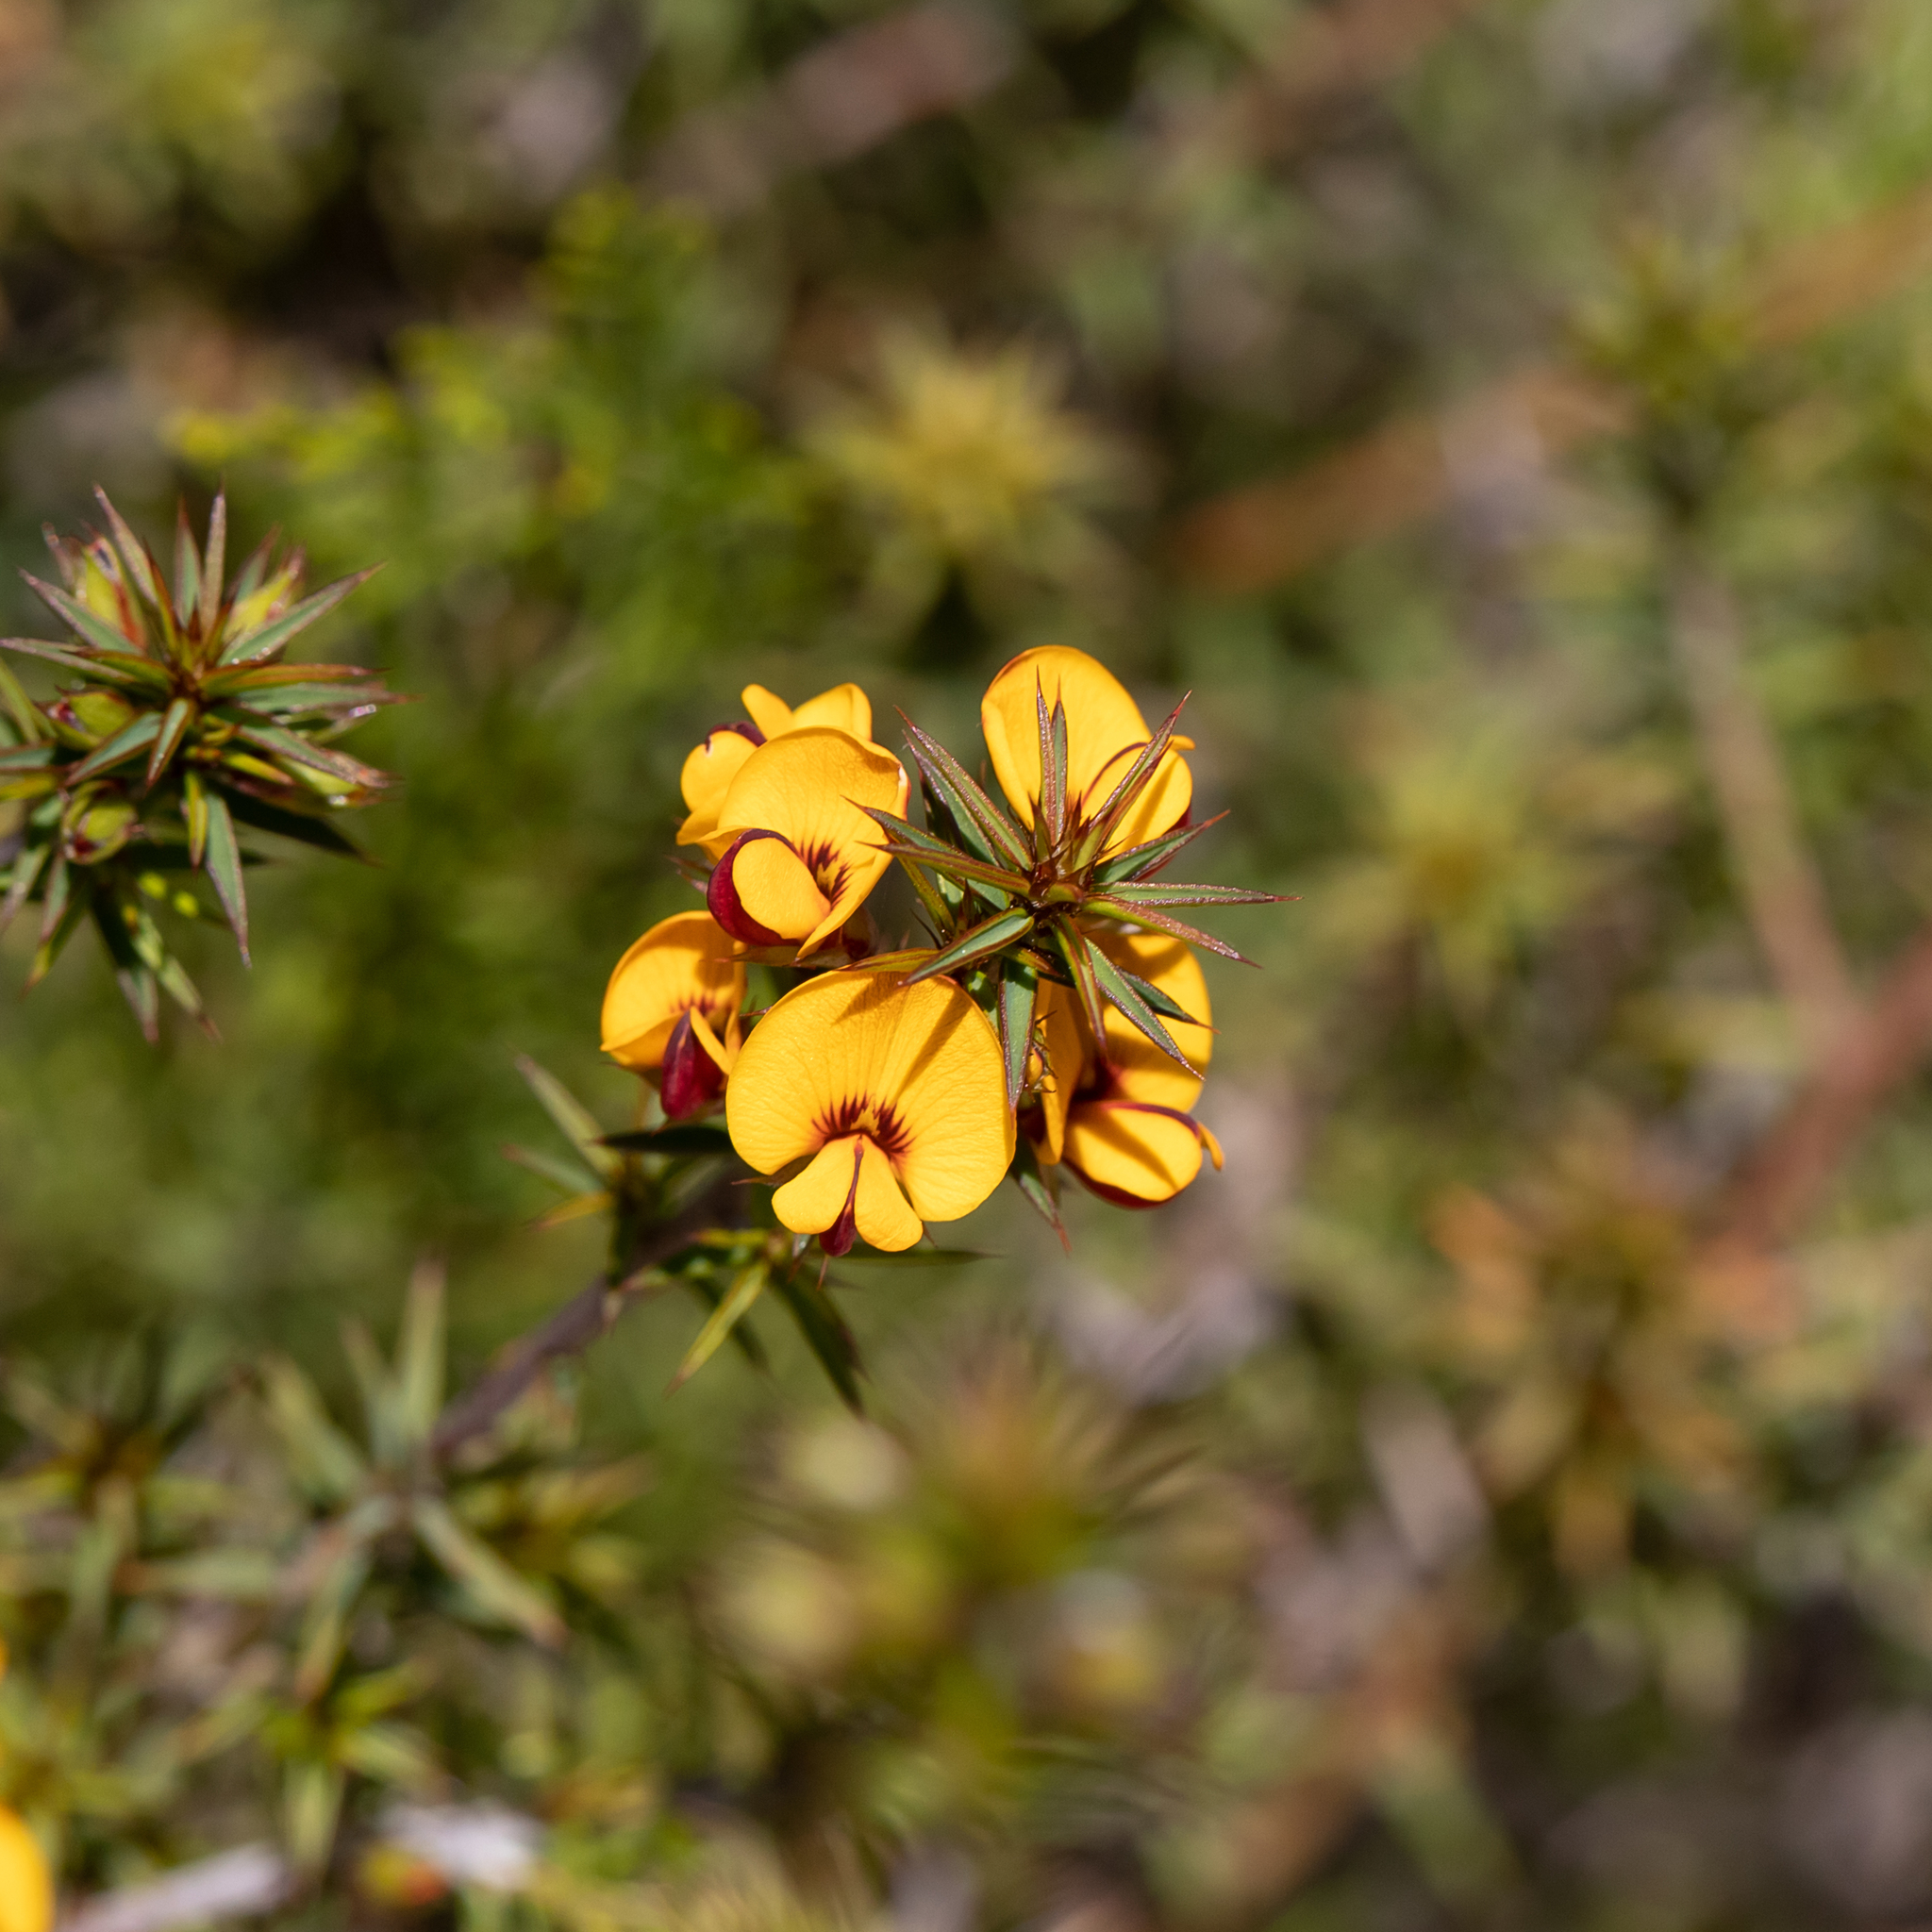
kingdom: Plantae
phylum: Tracheophyta
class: Magnoliopsida
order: Fabales
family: Fabaceae
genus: Pultenaea
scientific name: Pultenaea acerosa
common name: Bristly bush-pea
